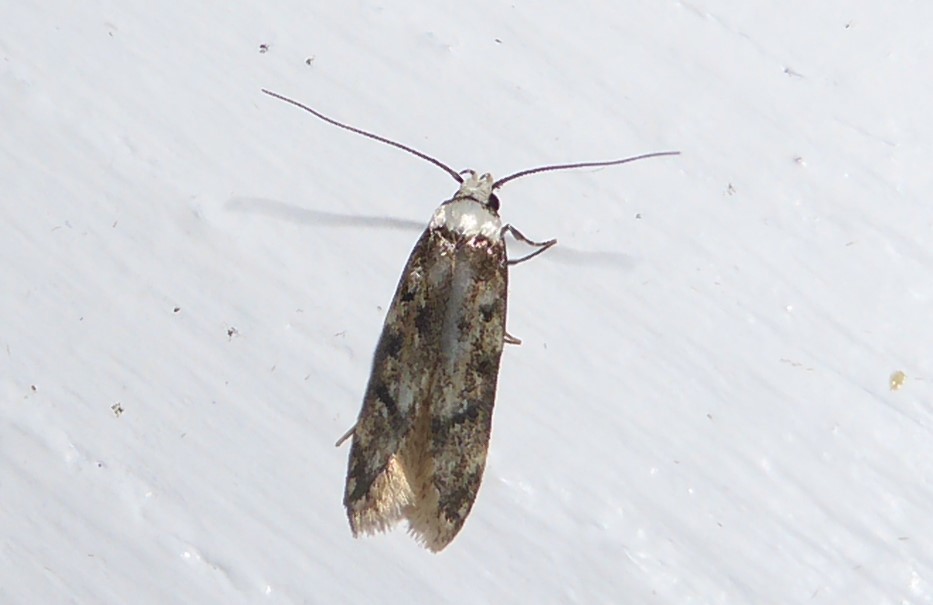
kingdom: Animalia
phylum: Arthropoda
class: Insecta
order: Lepidoptera
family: Oecophoridae
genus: Endrosis
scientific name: Endrosis sarcitrella
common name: White-shouldered house moth
